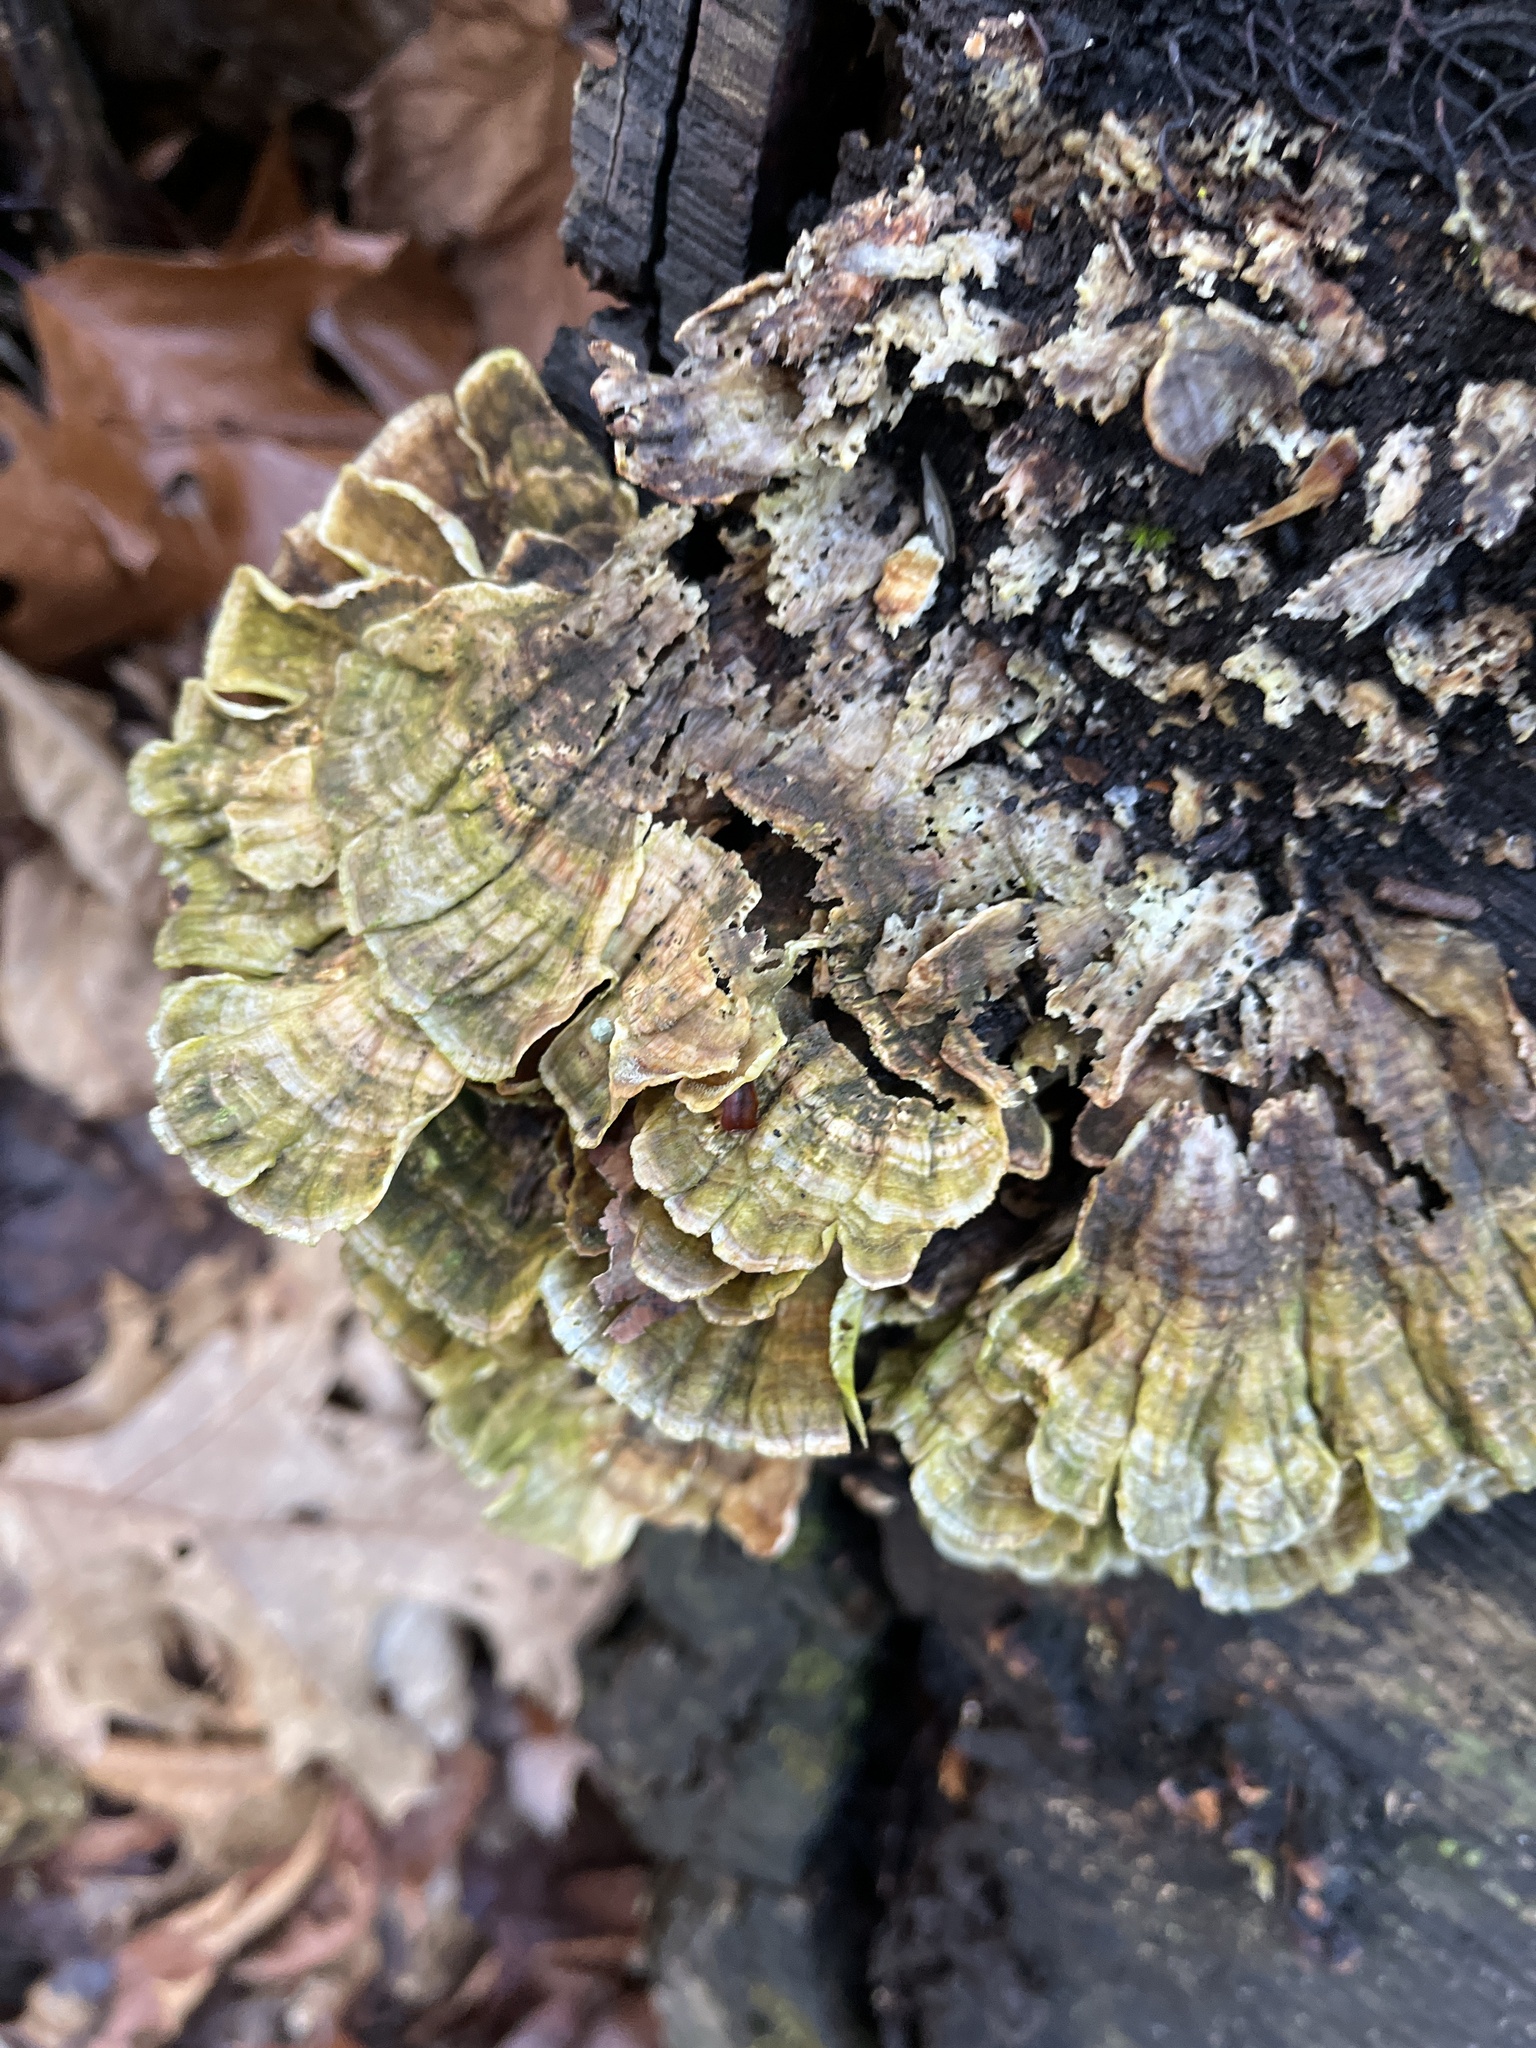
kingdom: Fungi
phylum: Basidiomycota
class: Agaricomycetes
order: Polyporales
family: Polyporaceae
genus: Trametes
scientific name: Trametes versicolor
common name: Turkeytail
